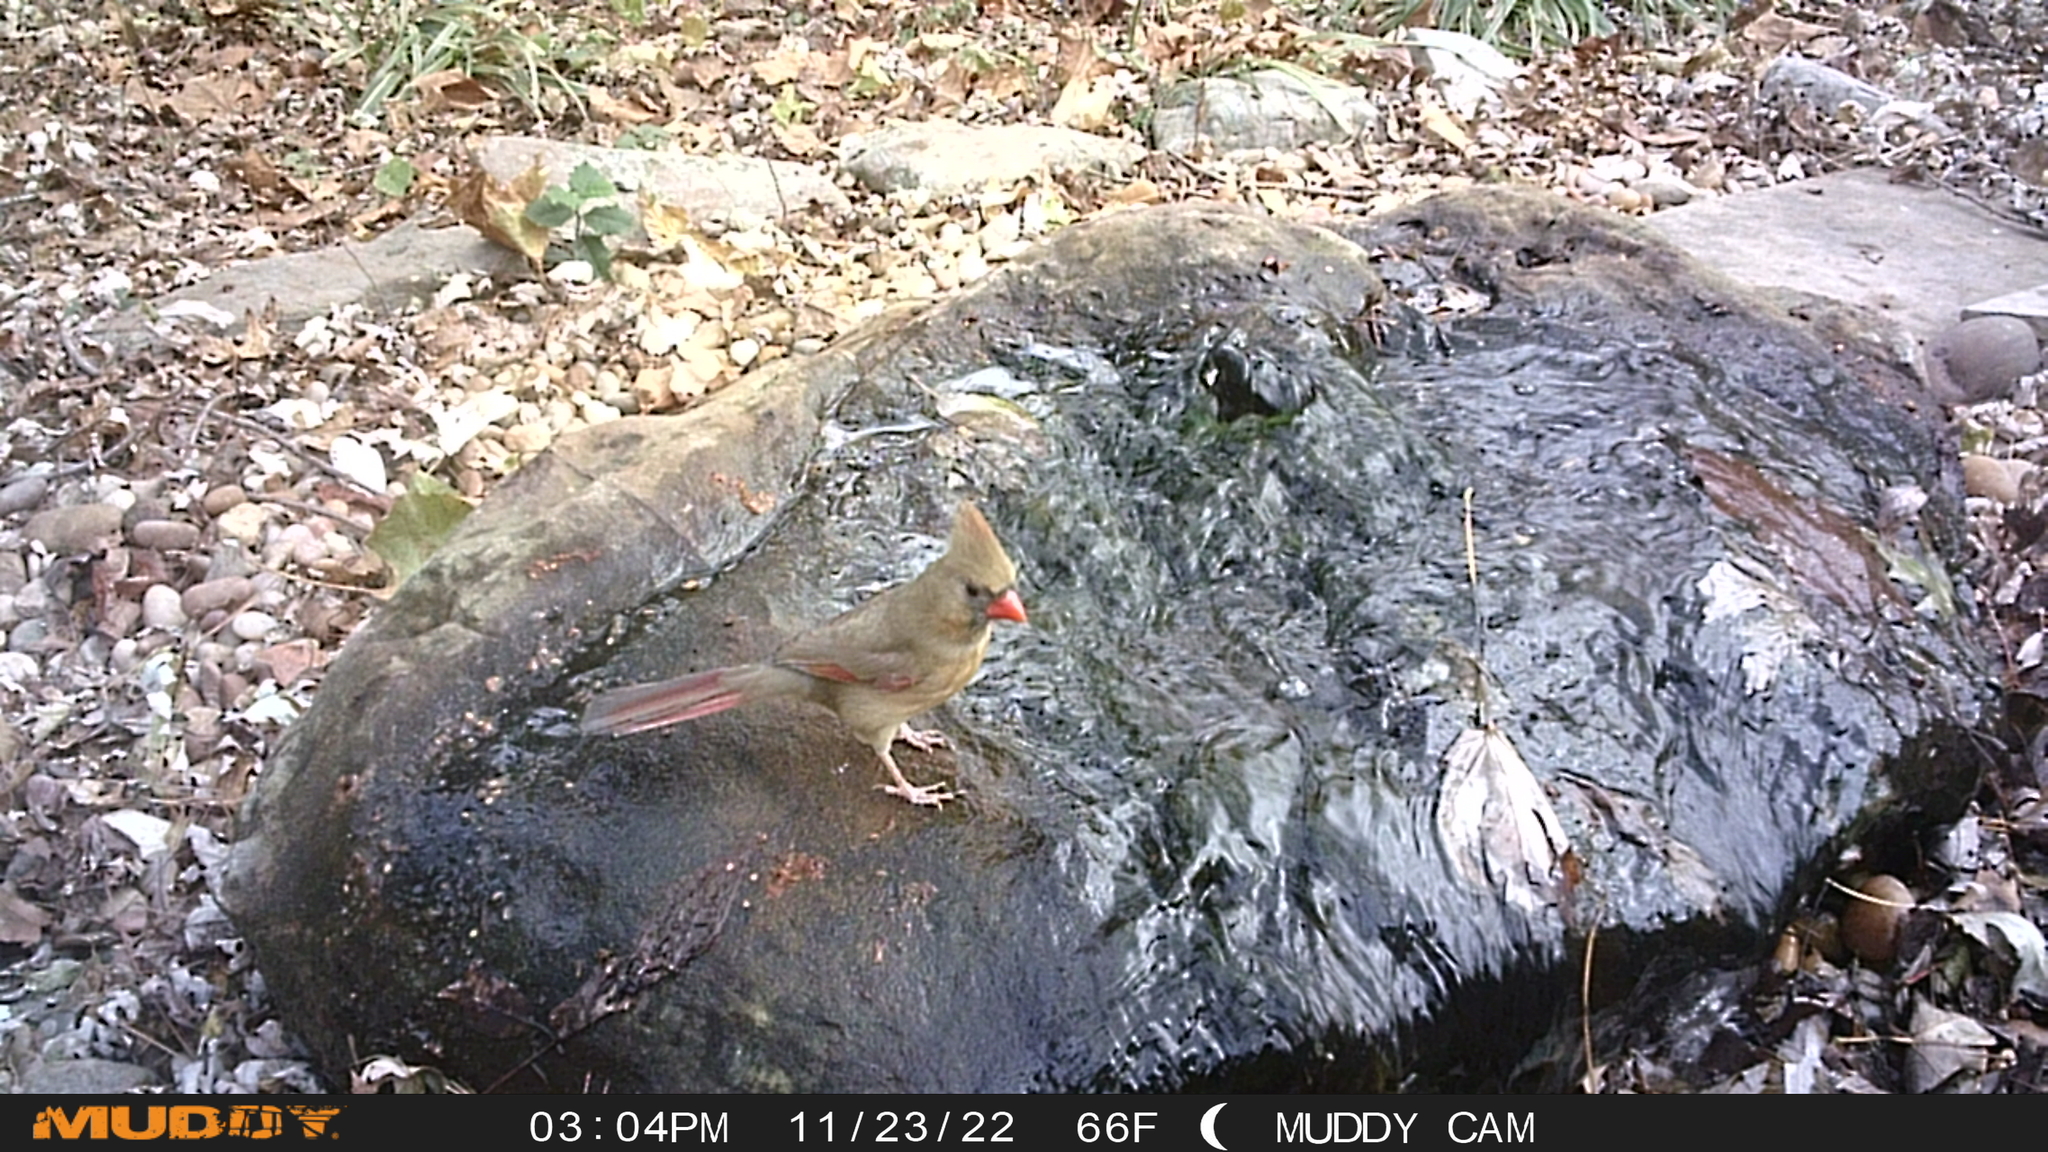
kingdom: Animalia
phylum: Chordata
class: Aves
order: Passeriformes
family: Cardinalidae
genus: Cardinalis
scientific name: Cardinalis cardinalis
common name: Northern cardinal
